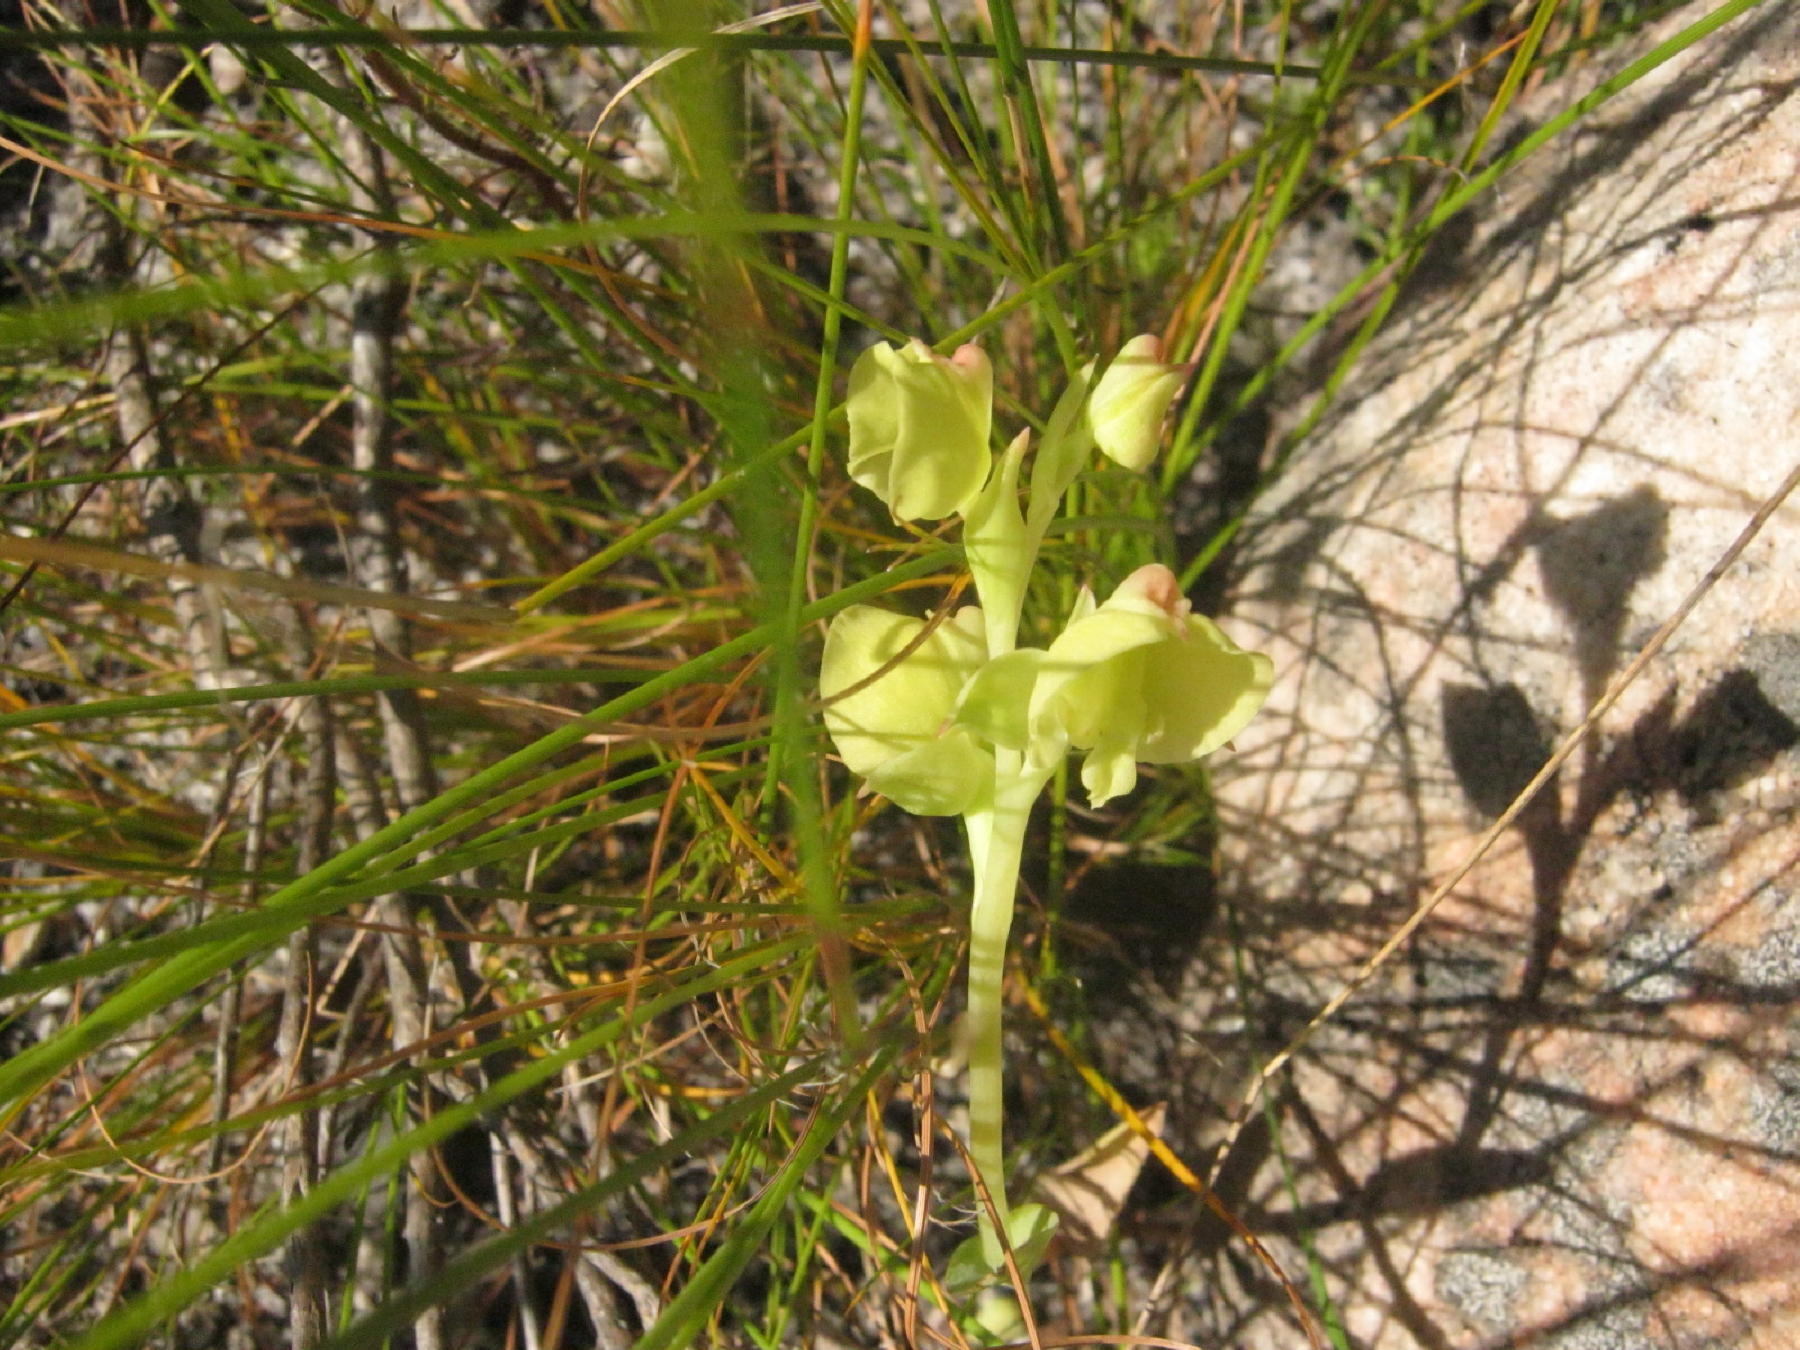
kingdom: Plantae
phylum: Tracheophyta
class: Liliopsida
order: Asparagales
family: Orchidaceae
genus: Pterygodium
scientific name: Pterygodium catholicum
